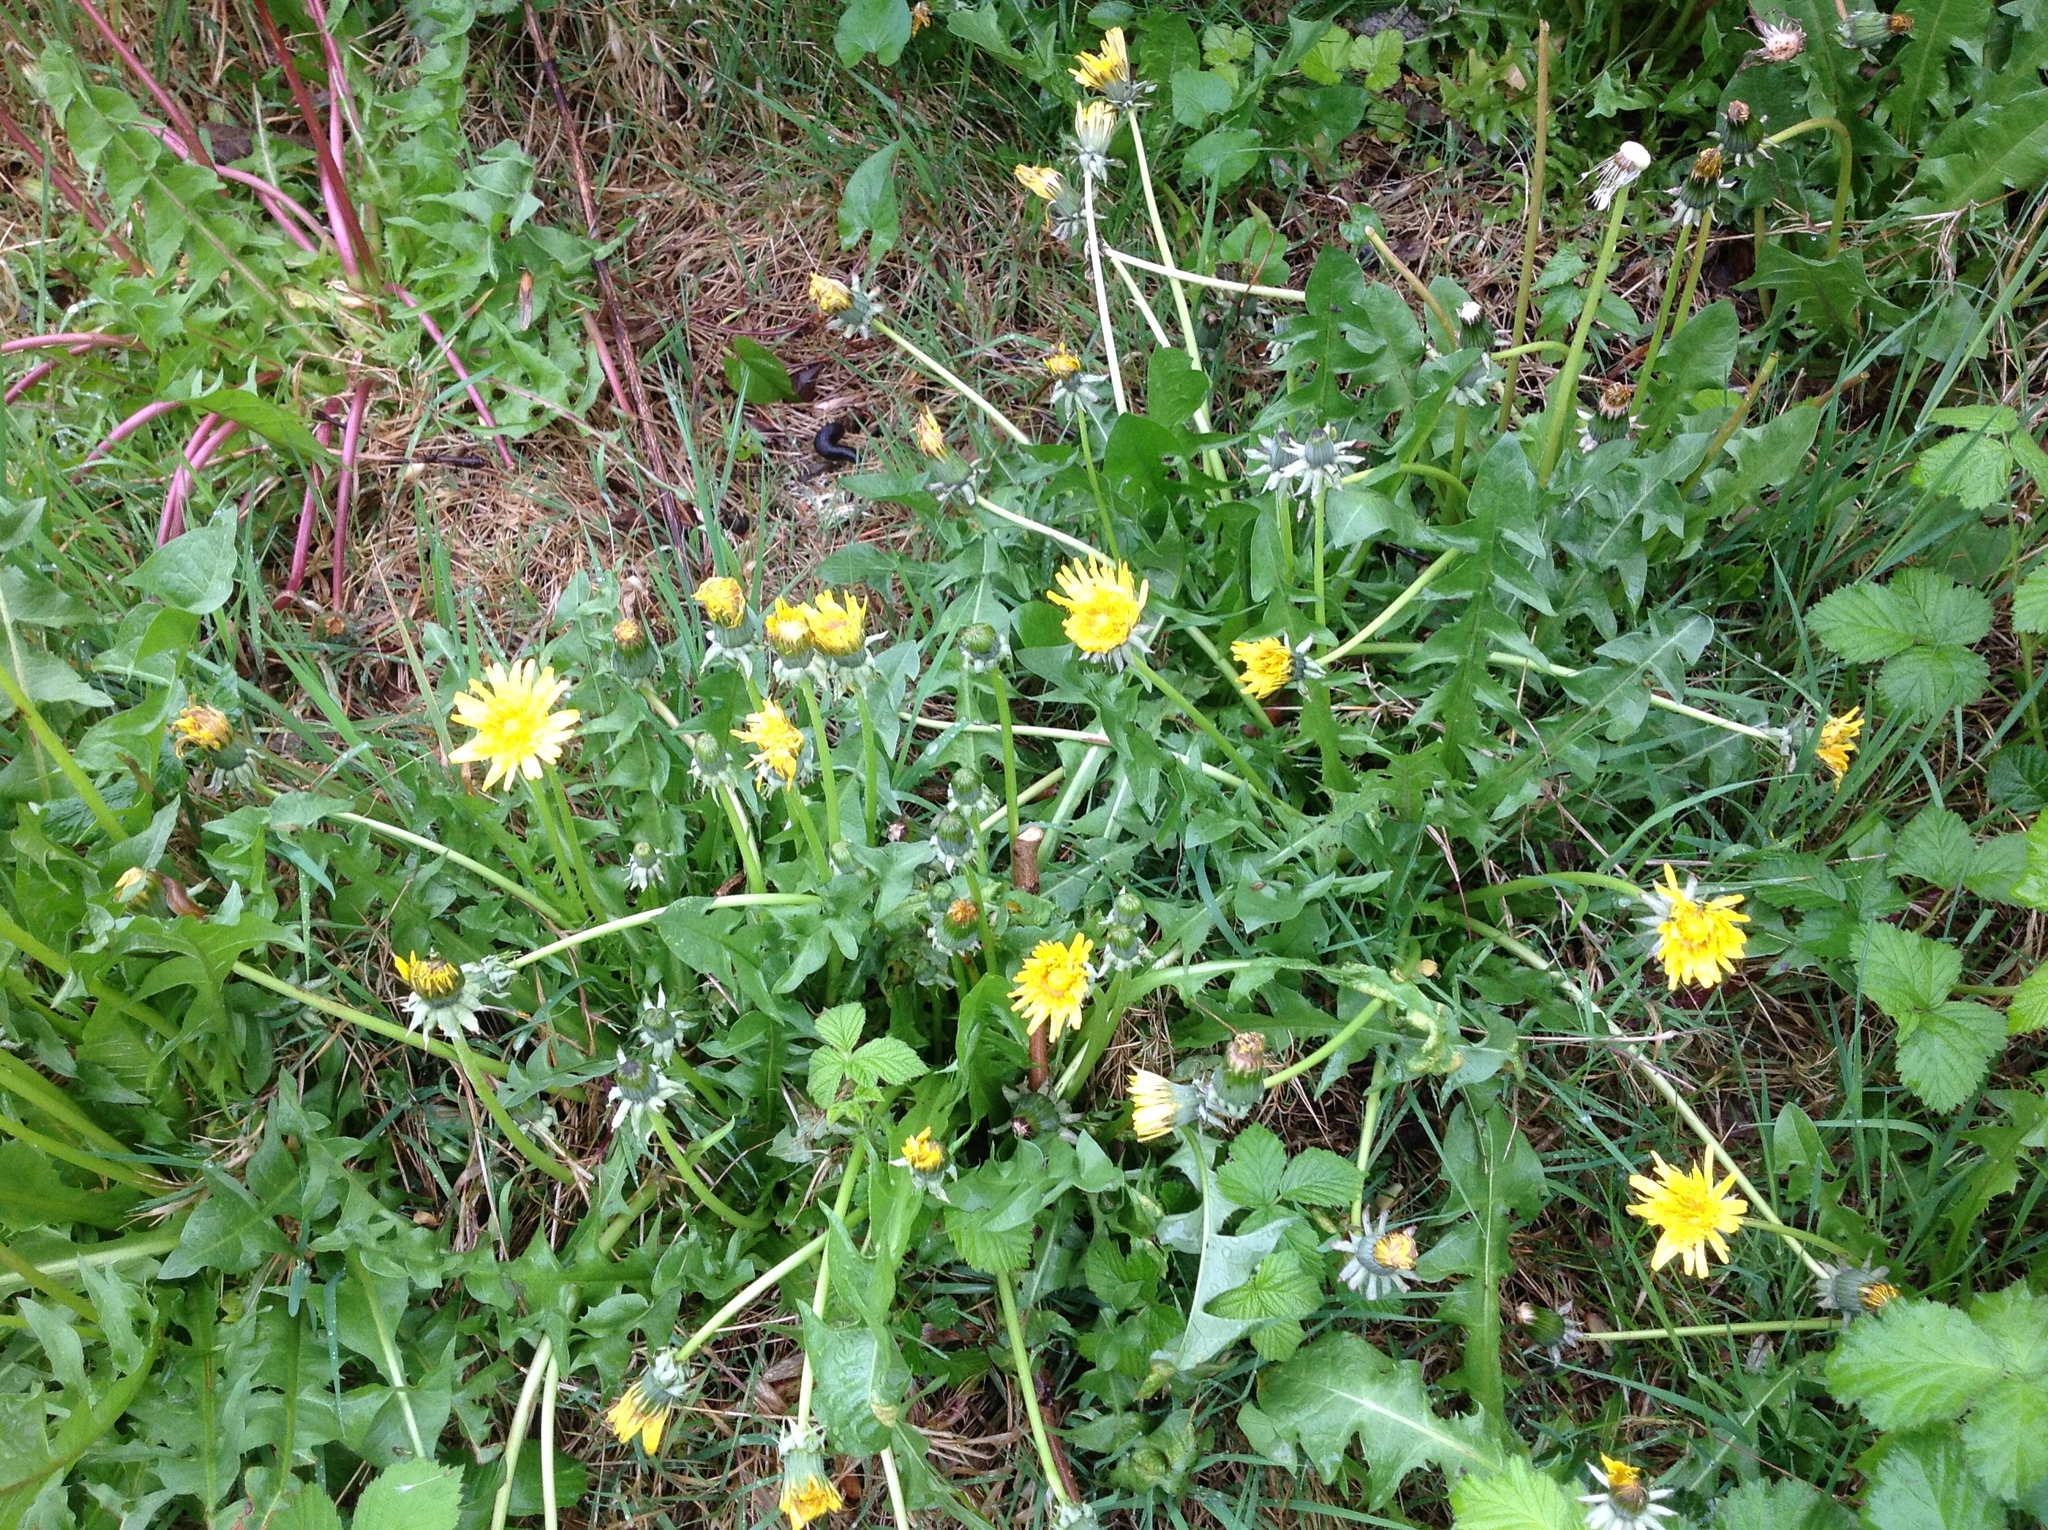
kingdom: Plantae
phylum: Tracheophyta
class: Magnoliopsida
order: Asterales
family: Asteraceae
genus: Taraxacum
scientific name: Taraxacum officinale
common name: Common dandelion
